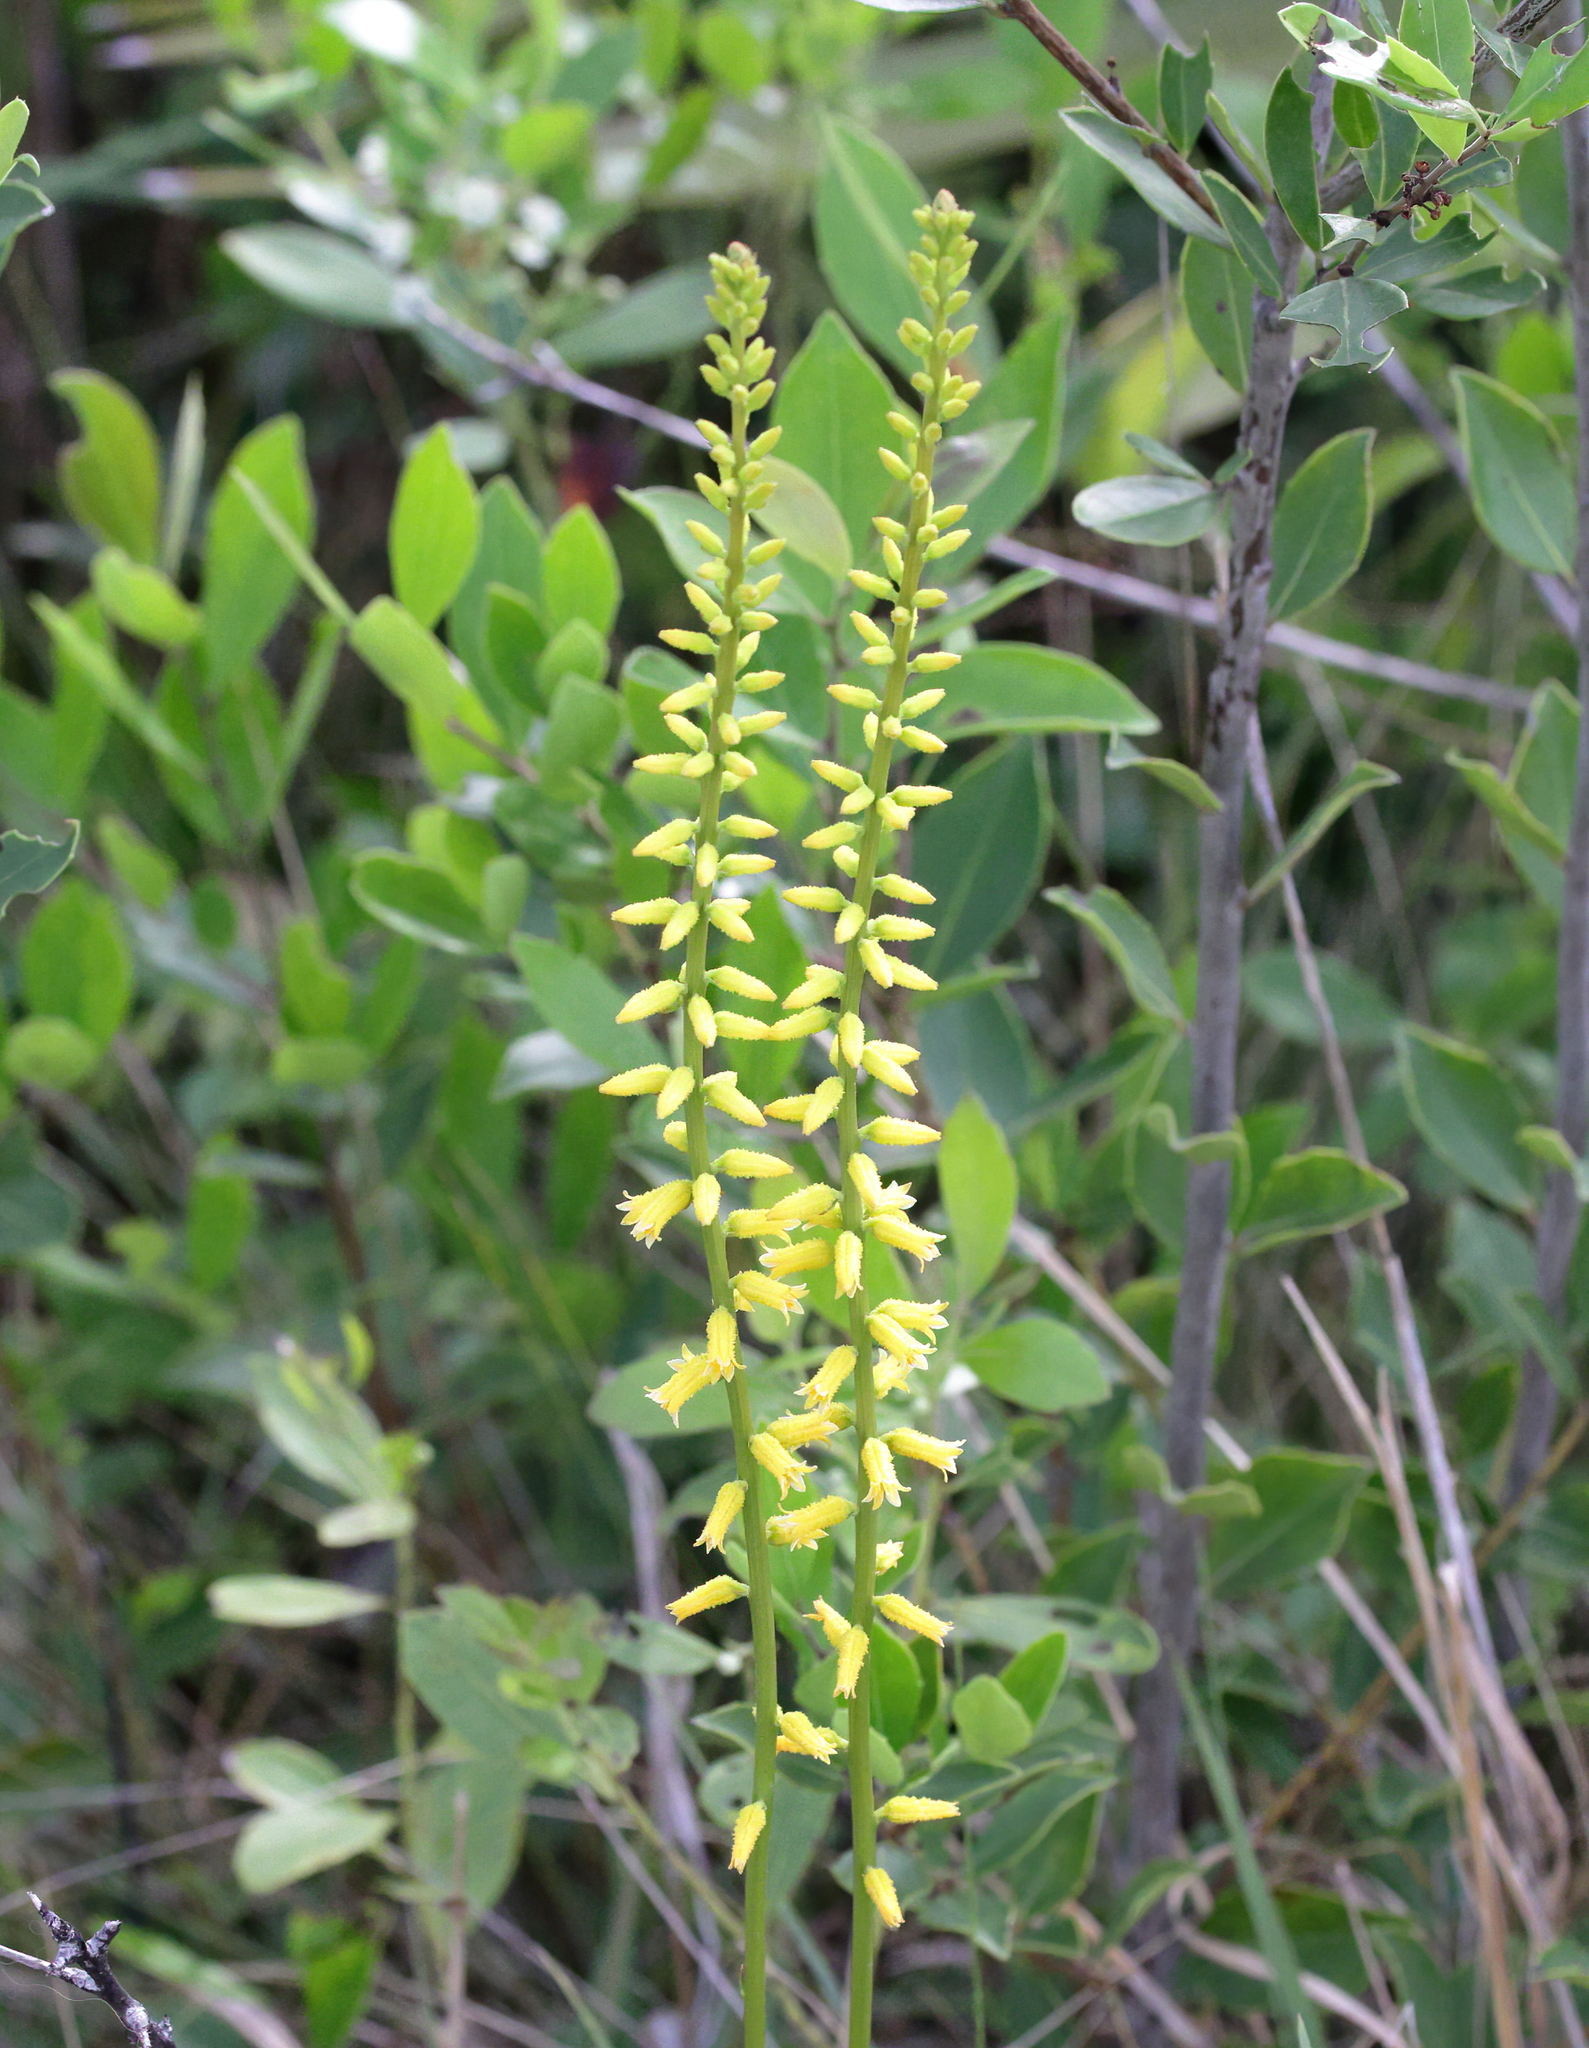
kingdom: Plantae
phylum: Tracheophyta
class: Liliopsida
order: Dioscoreales
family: Nartheciaceae
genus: Aletris
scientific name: Aletris lutea
